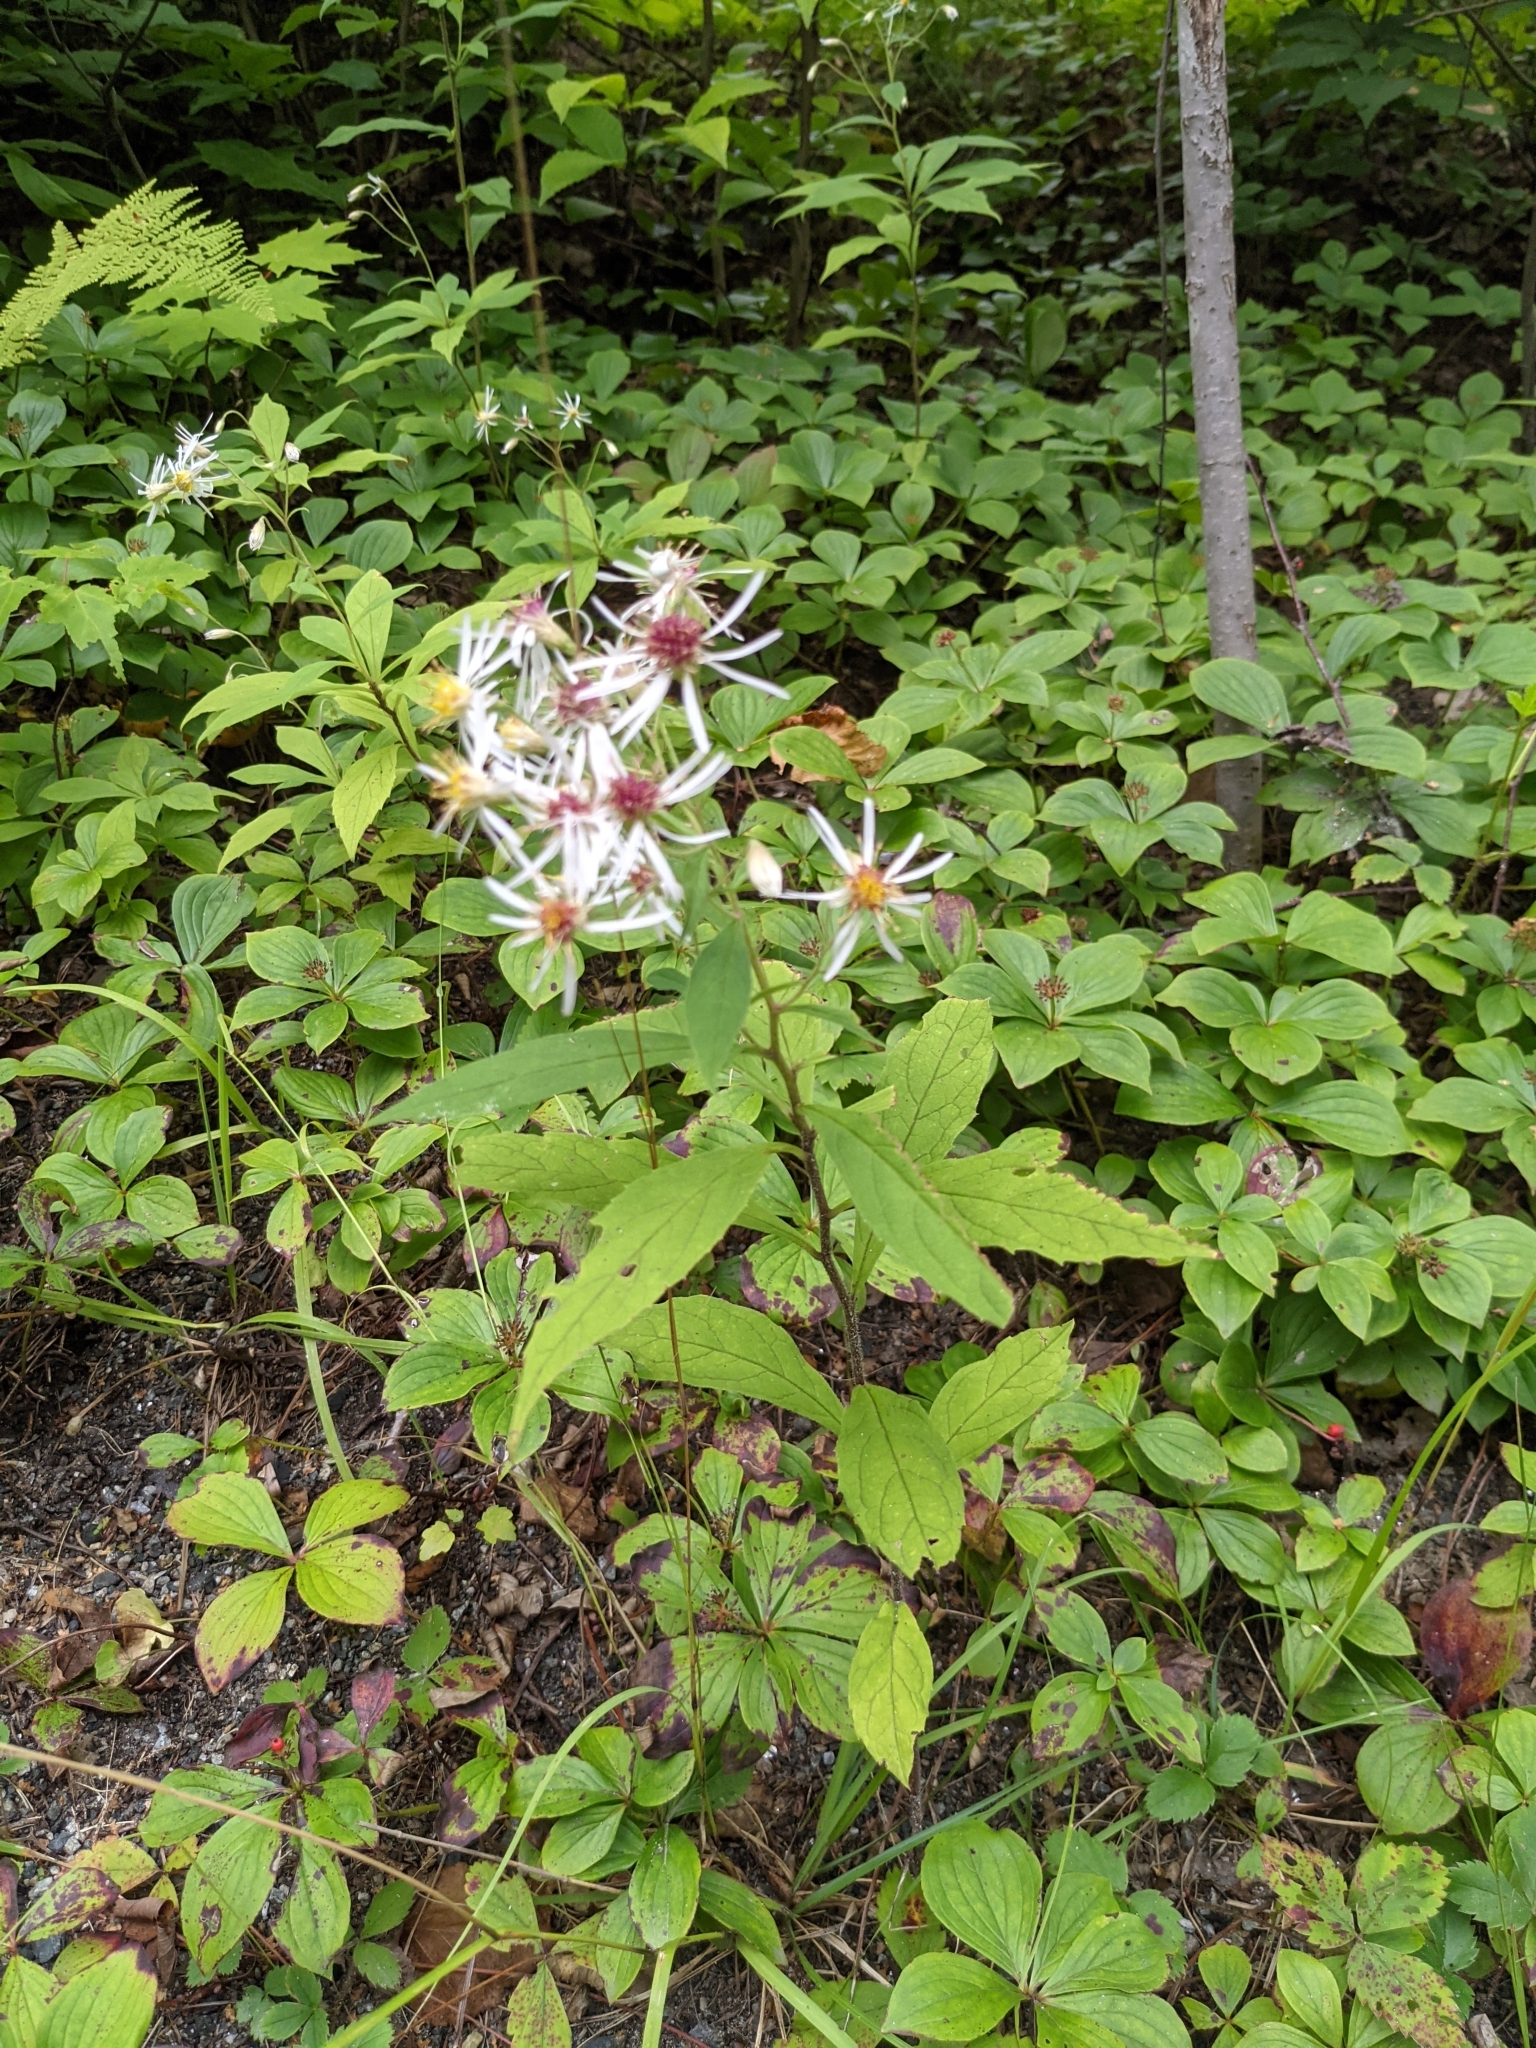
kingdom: Plantae
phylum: Tracheophyta
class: Magnoliopsida
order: Asterales
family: Asteraceae
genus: Oclemena
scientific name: Oclemena acuminata
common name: Mountain aster
